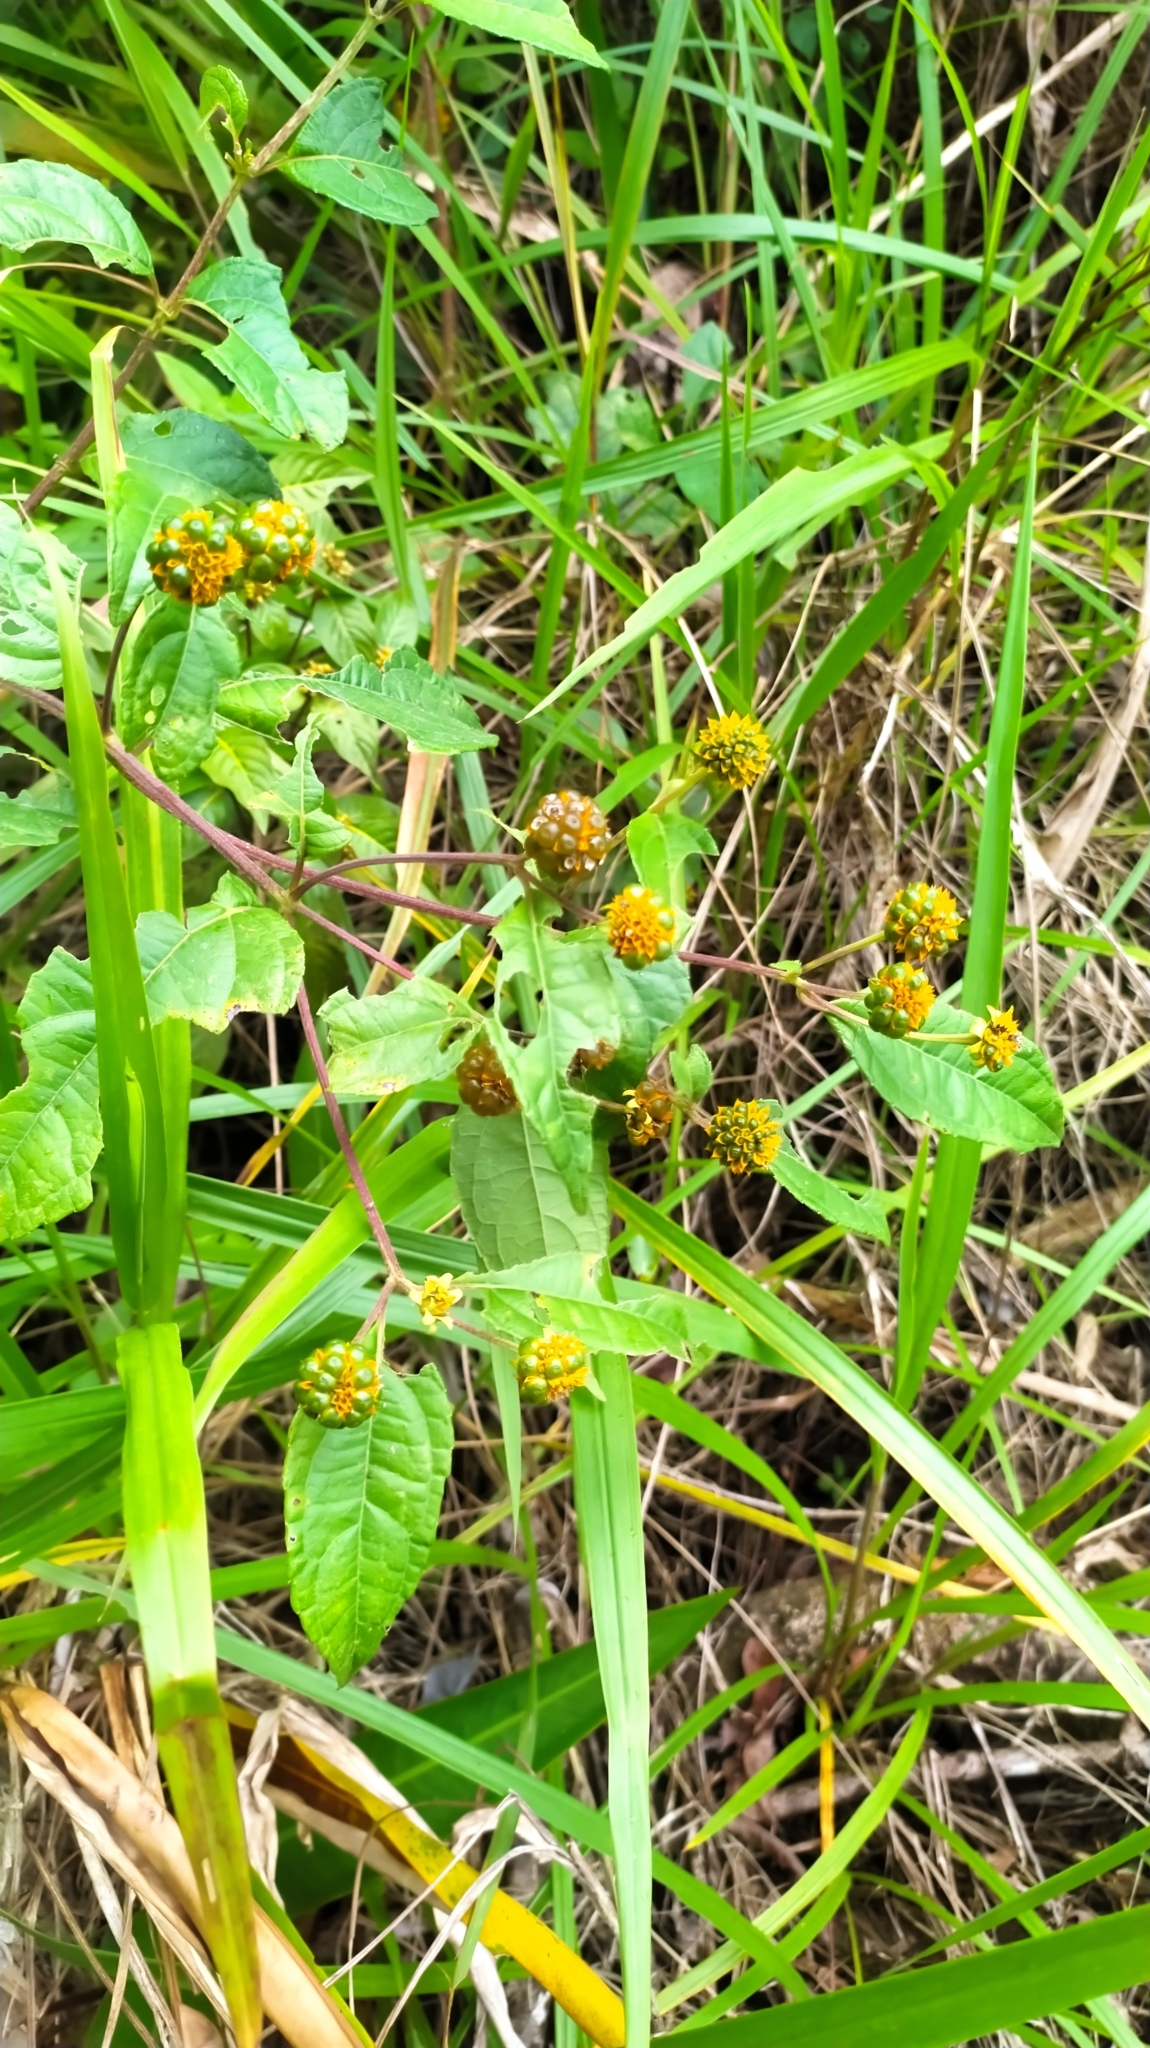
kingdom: Plantae
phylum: Tracheophyta
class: Magnoliopsida
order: Asterales
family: Asteraceae
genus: Tilesia
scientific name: Tilesia baccata
